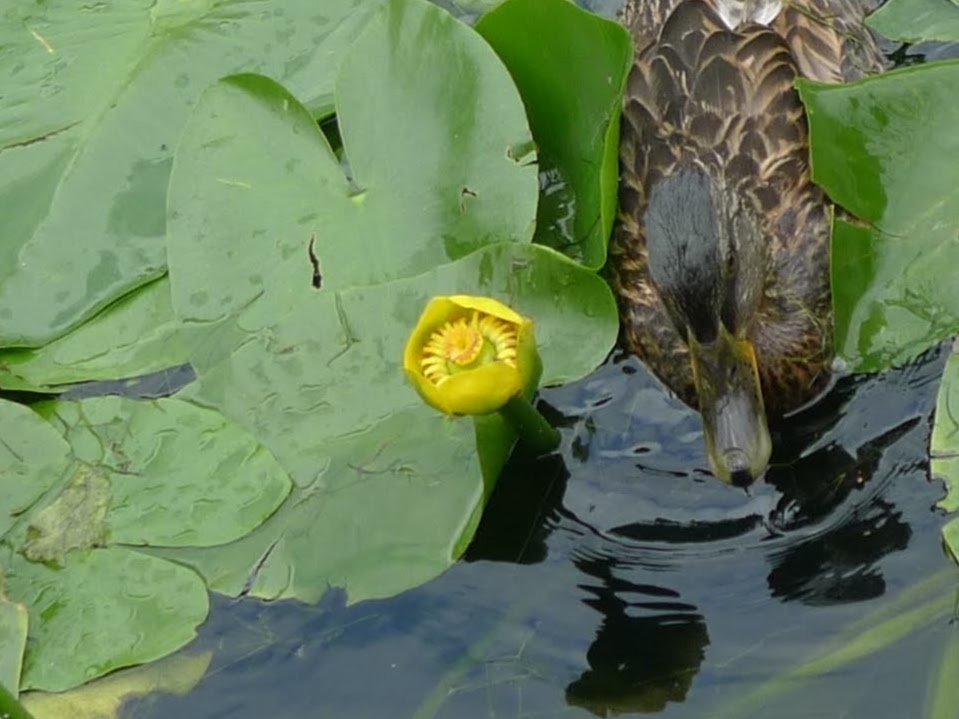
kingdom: Plantae
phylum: Tracheophyta
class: Magnoliopsida
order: Nymphaeales
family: Nymphaeaceae
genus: Nuphar
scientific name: Nuphar lutea
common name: Yellow water-lily
